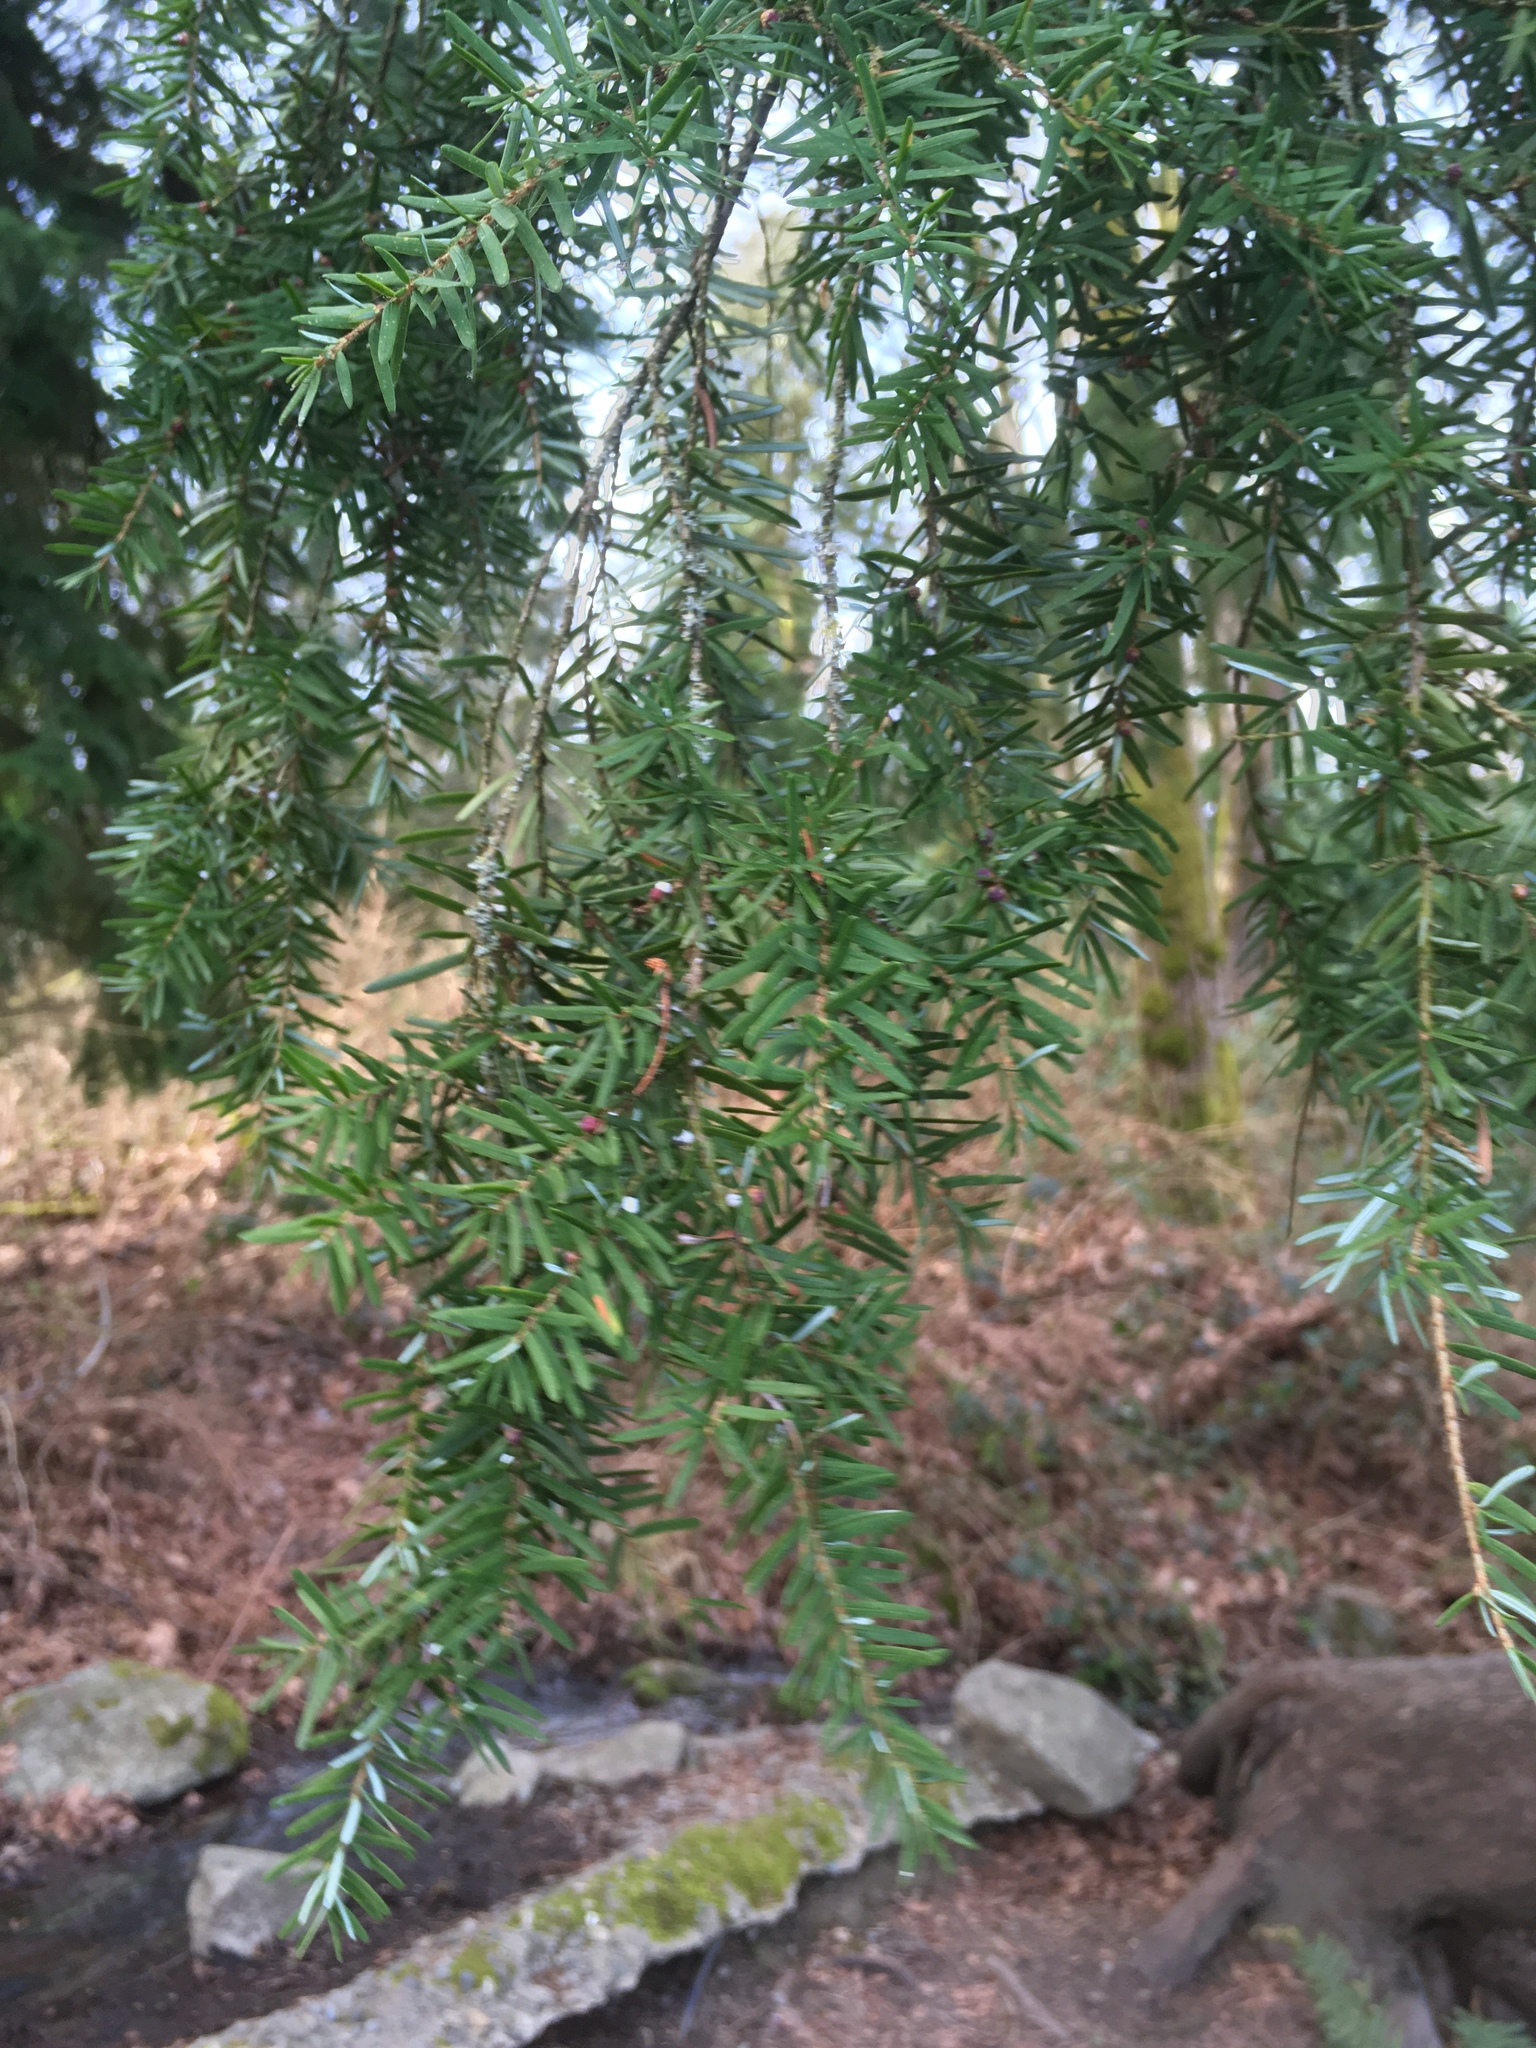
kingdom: Plantae
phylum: Tracheophyta
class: Pinopsida
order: Pinales
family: Pinaceae
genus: Tsuga
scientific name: Tsuga heterophylla
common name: Western hemlock
